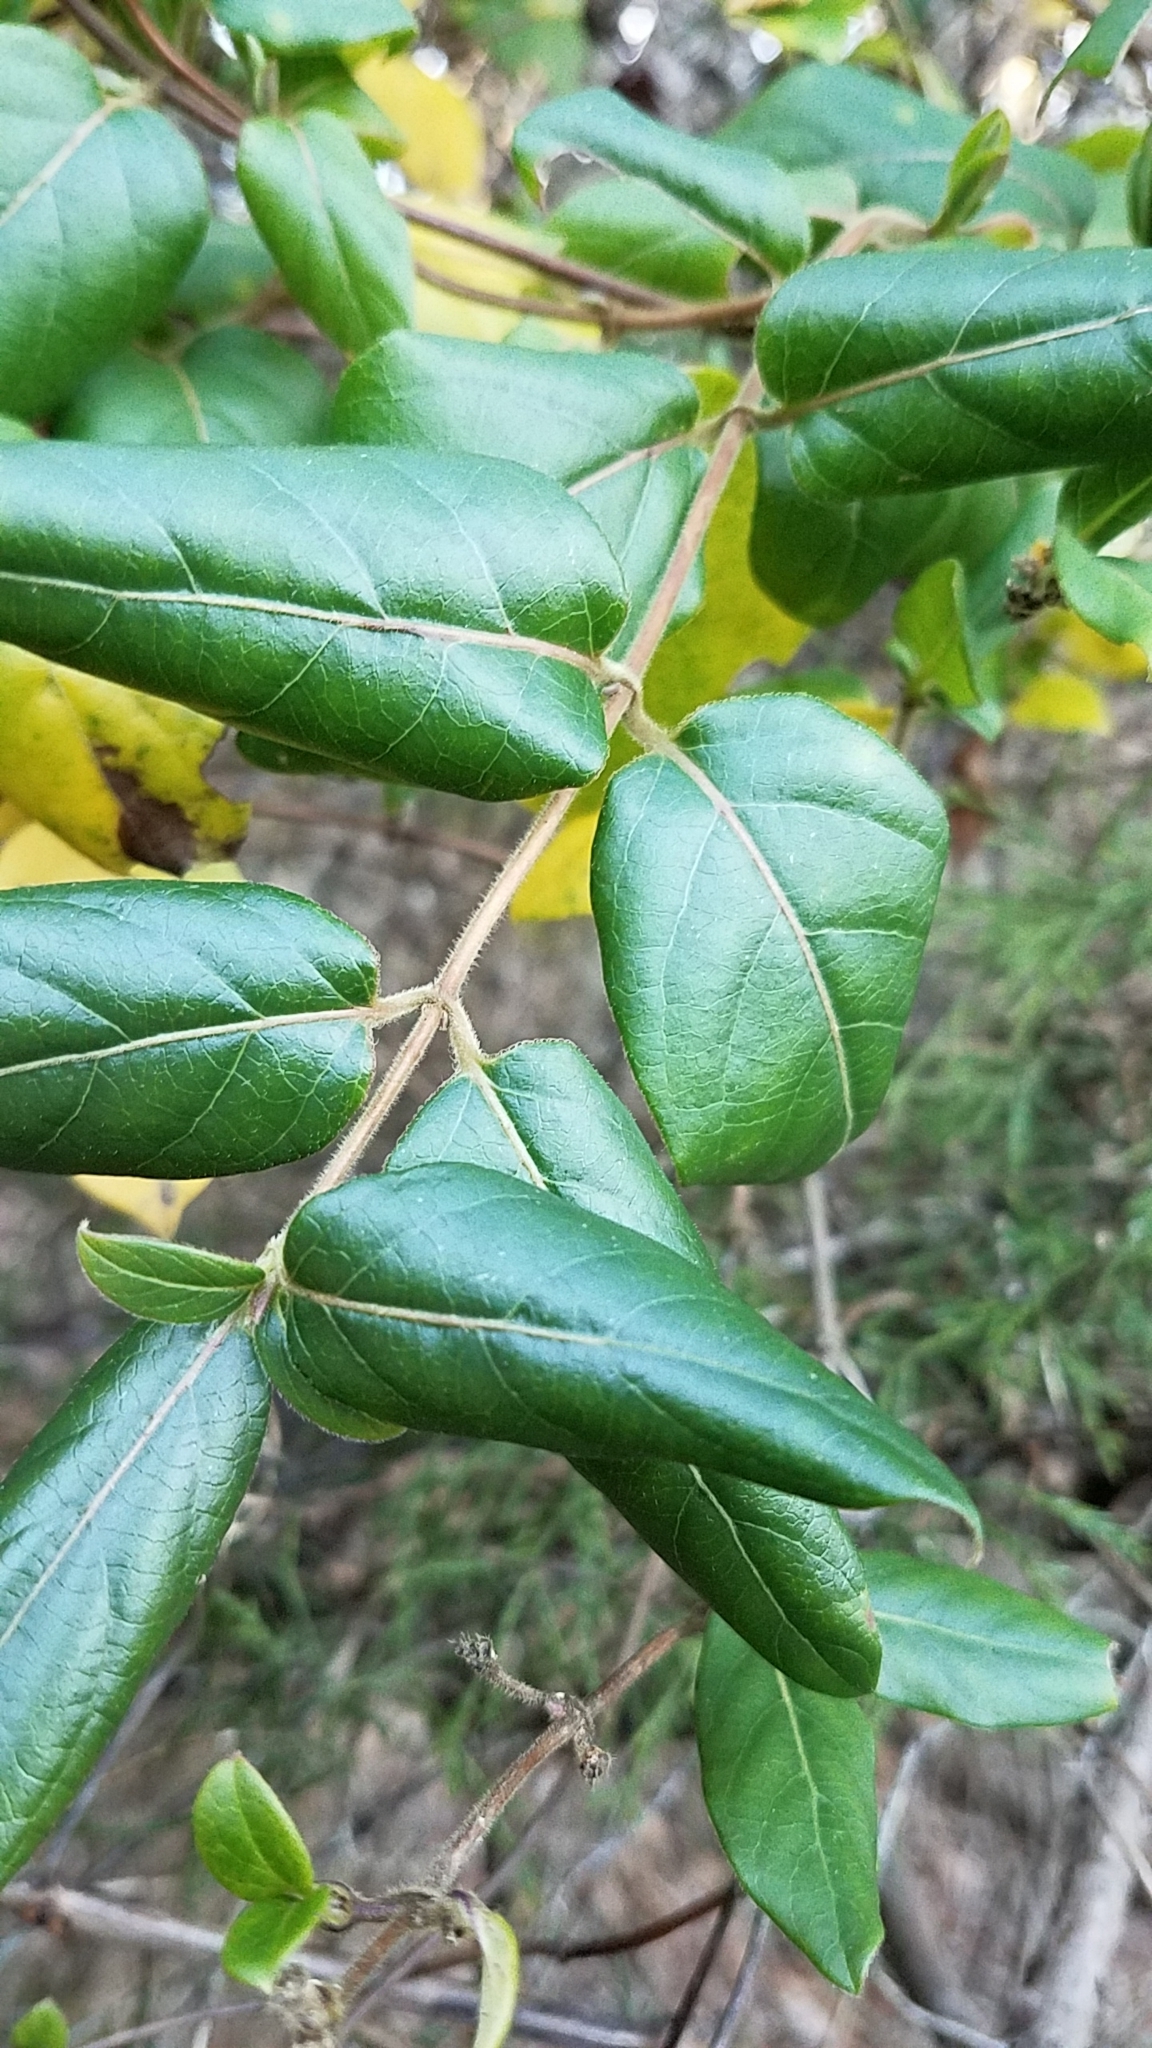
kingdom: Plantae
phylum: Tracheophyta
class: Magnoliopsida
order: Dipsacales
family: Caprifoliaceae
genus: Lonicera
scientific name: Lonicera japonica
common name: Japanese honeysuckle
